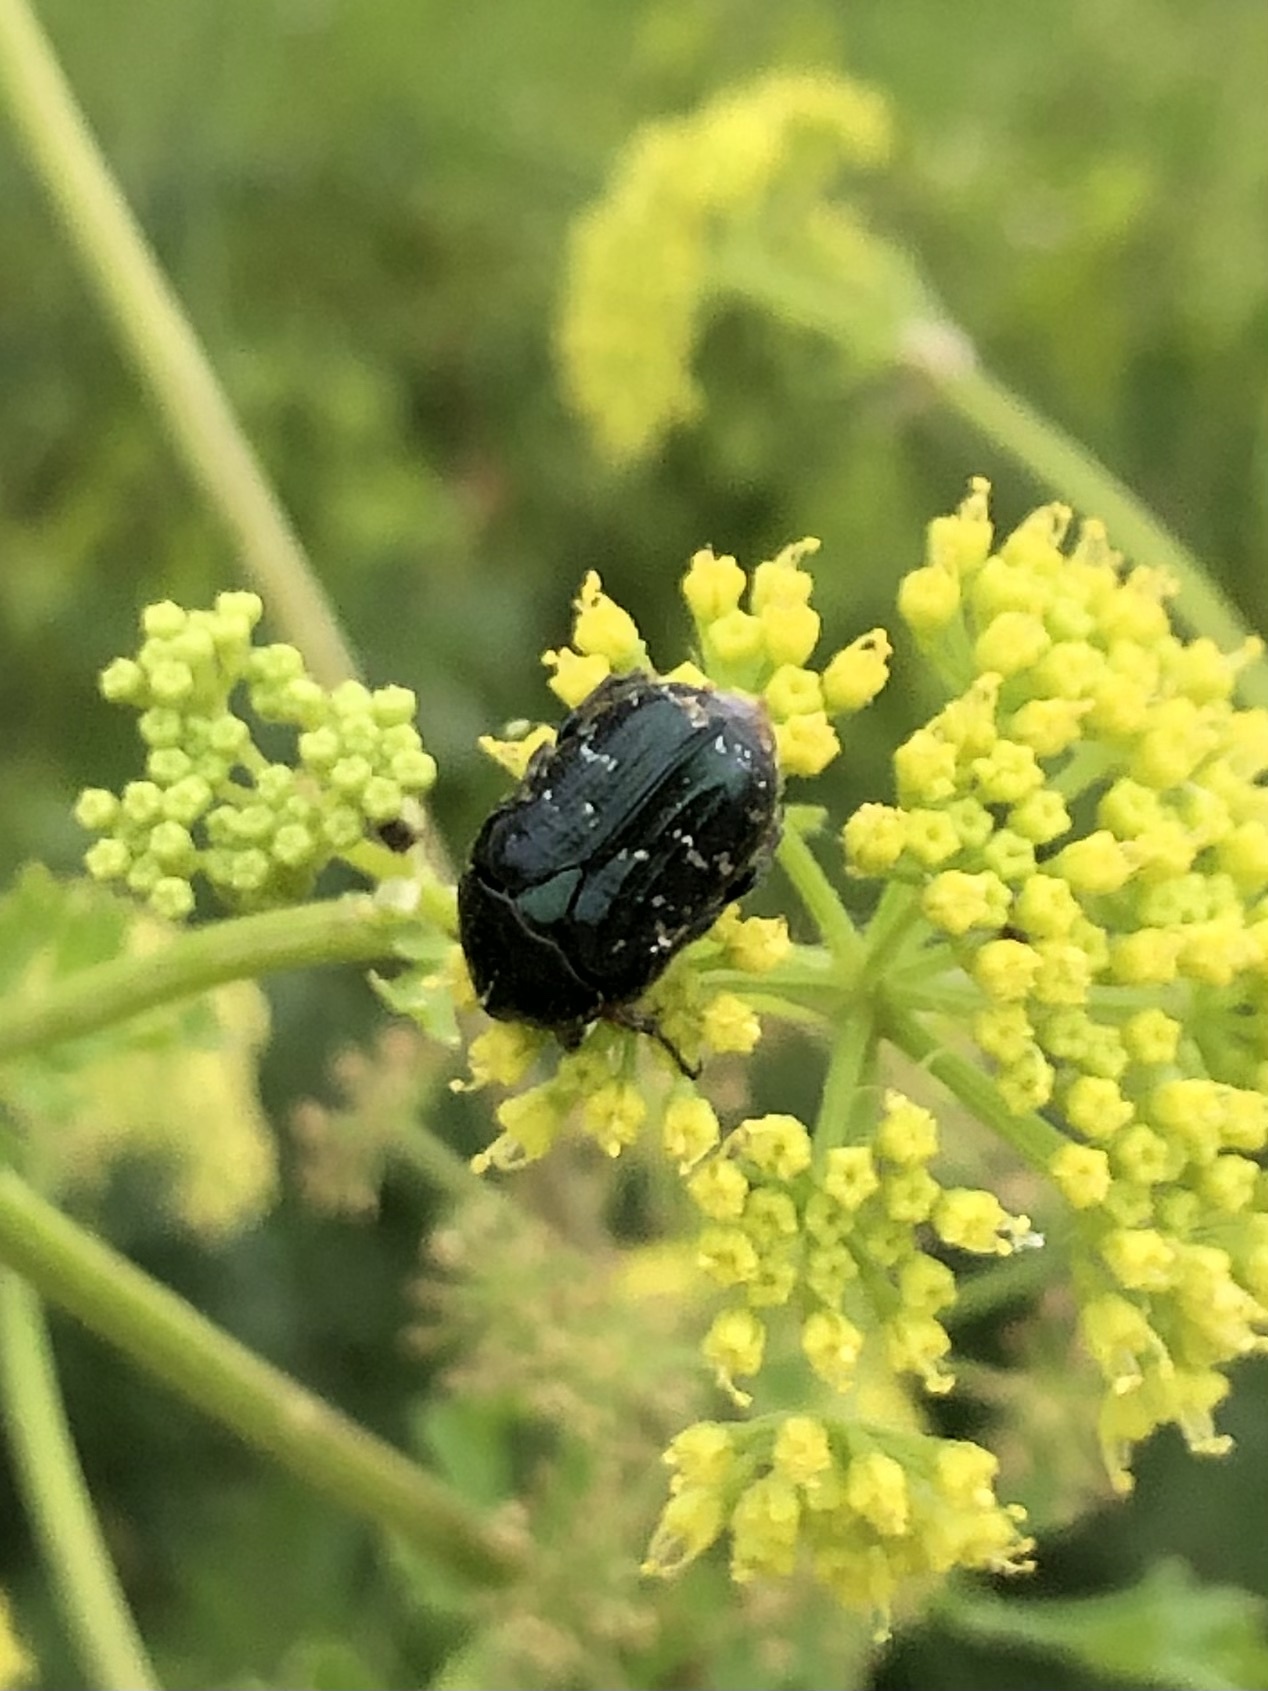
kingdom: Animalia
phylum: Arthropoda
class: Insecta
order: Coleoptera
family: Scarabaeidae
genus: Euphoria
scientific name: Euphoria sepulcralis
